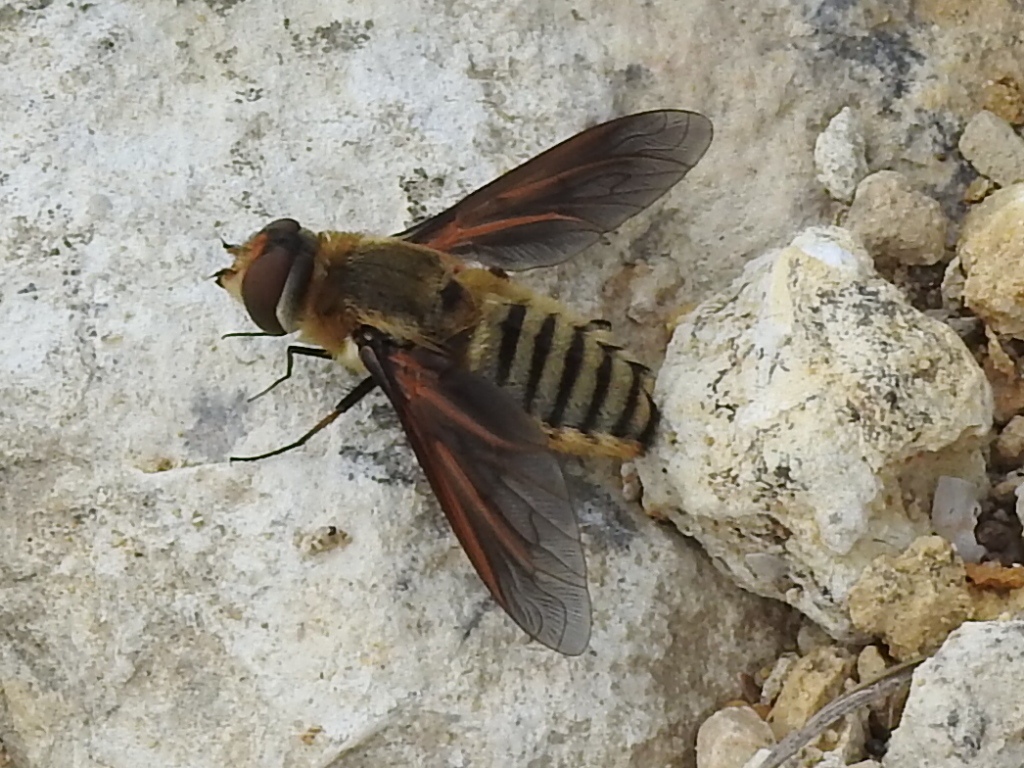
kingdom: Animalia
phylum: Arthropoda
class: Insecta
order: Diptera
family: Bombyliidae
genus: Poecilanthrax
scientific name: Poecilanthrax lucifer
